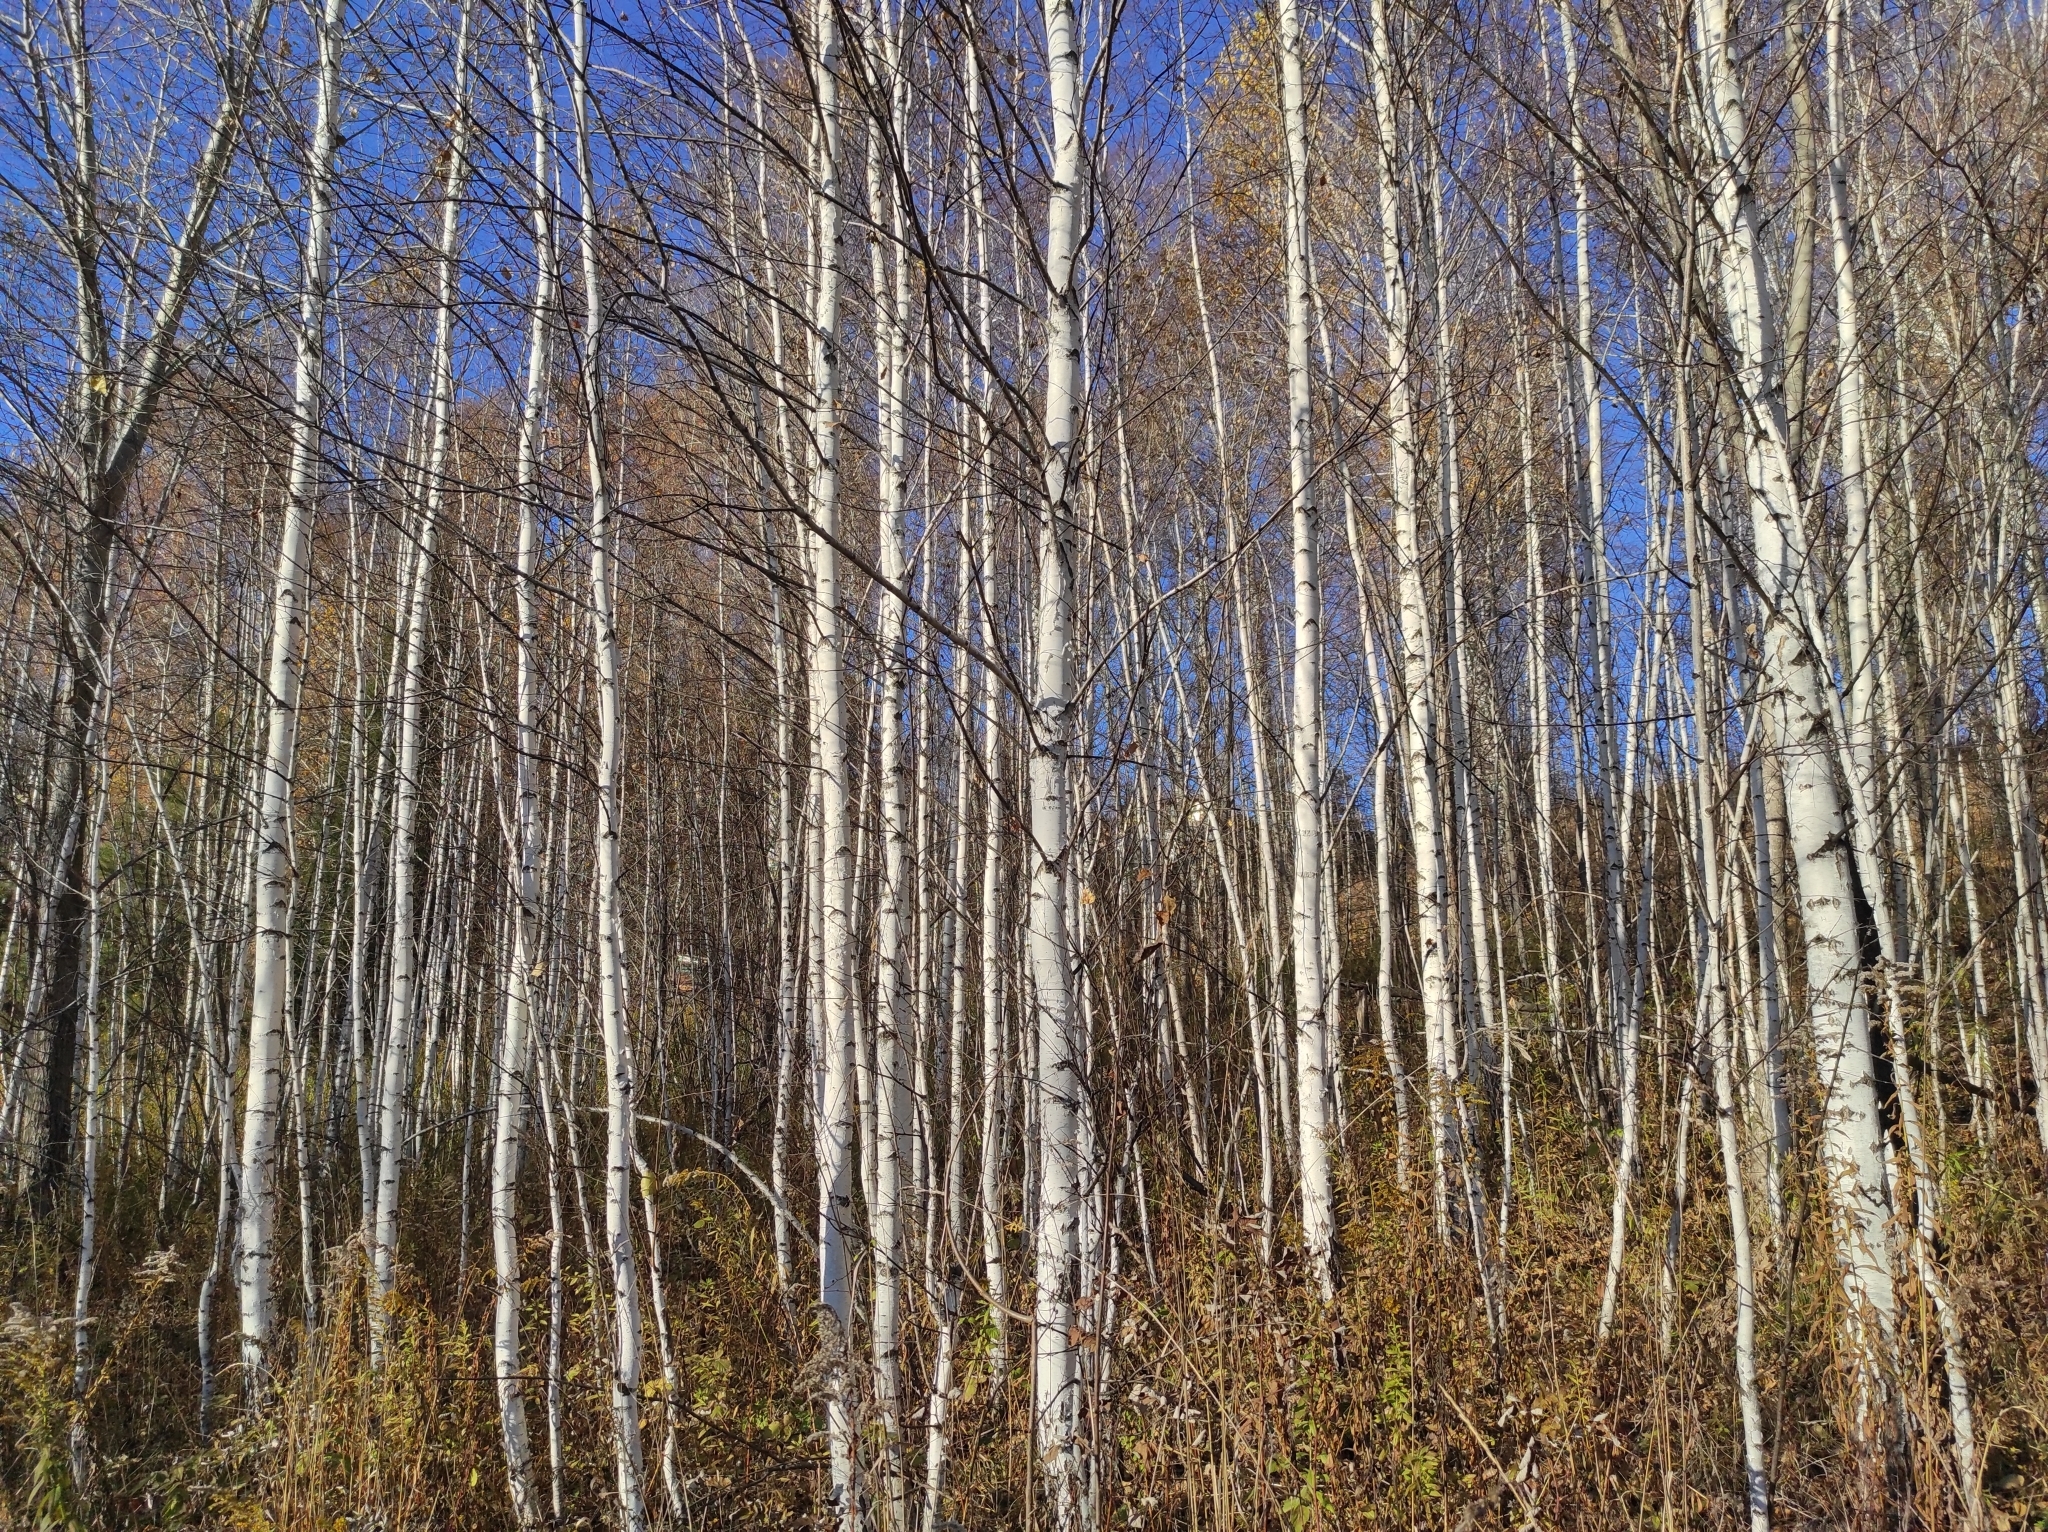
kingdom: Plantae
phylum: Tracheophyta
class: Magnoliopsida
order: Fagales
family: Betulaceae
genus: Betula
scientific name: Betula pendula
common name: Silver birch
